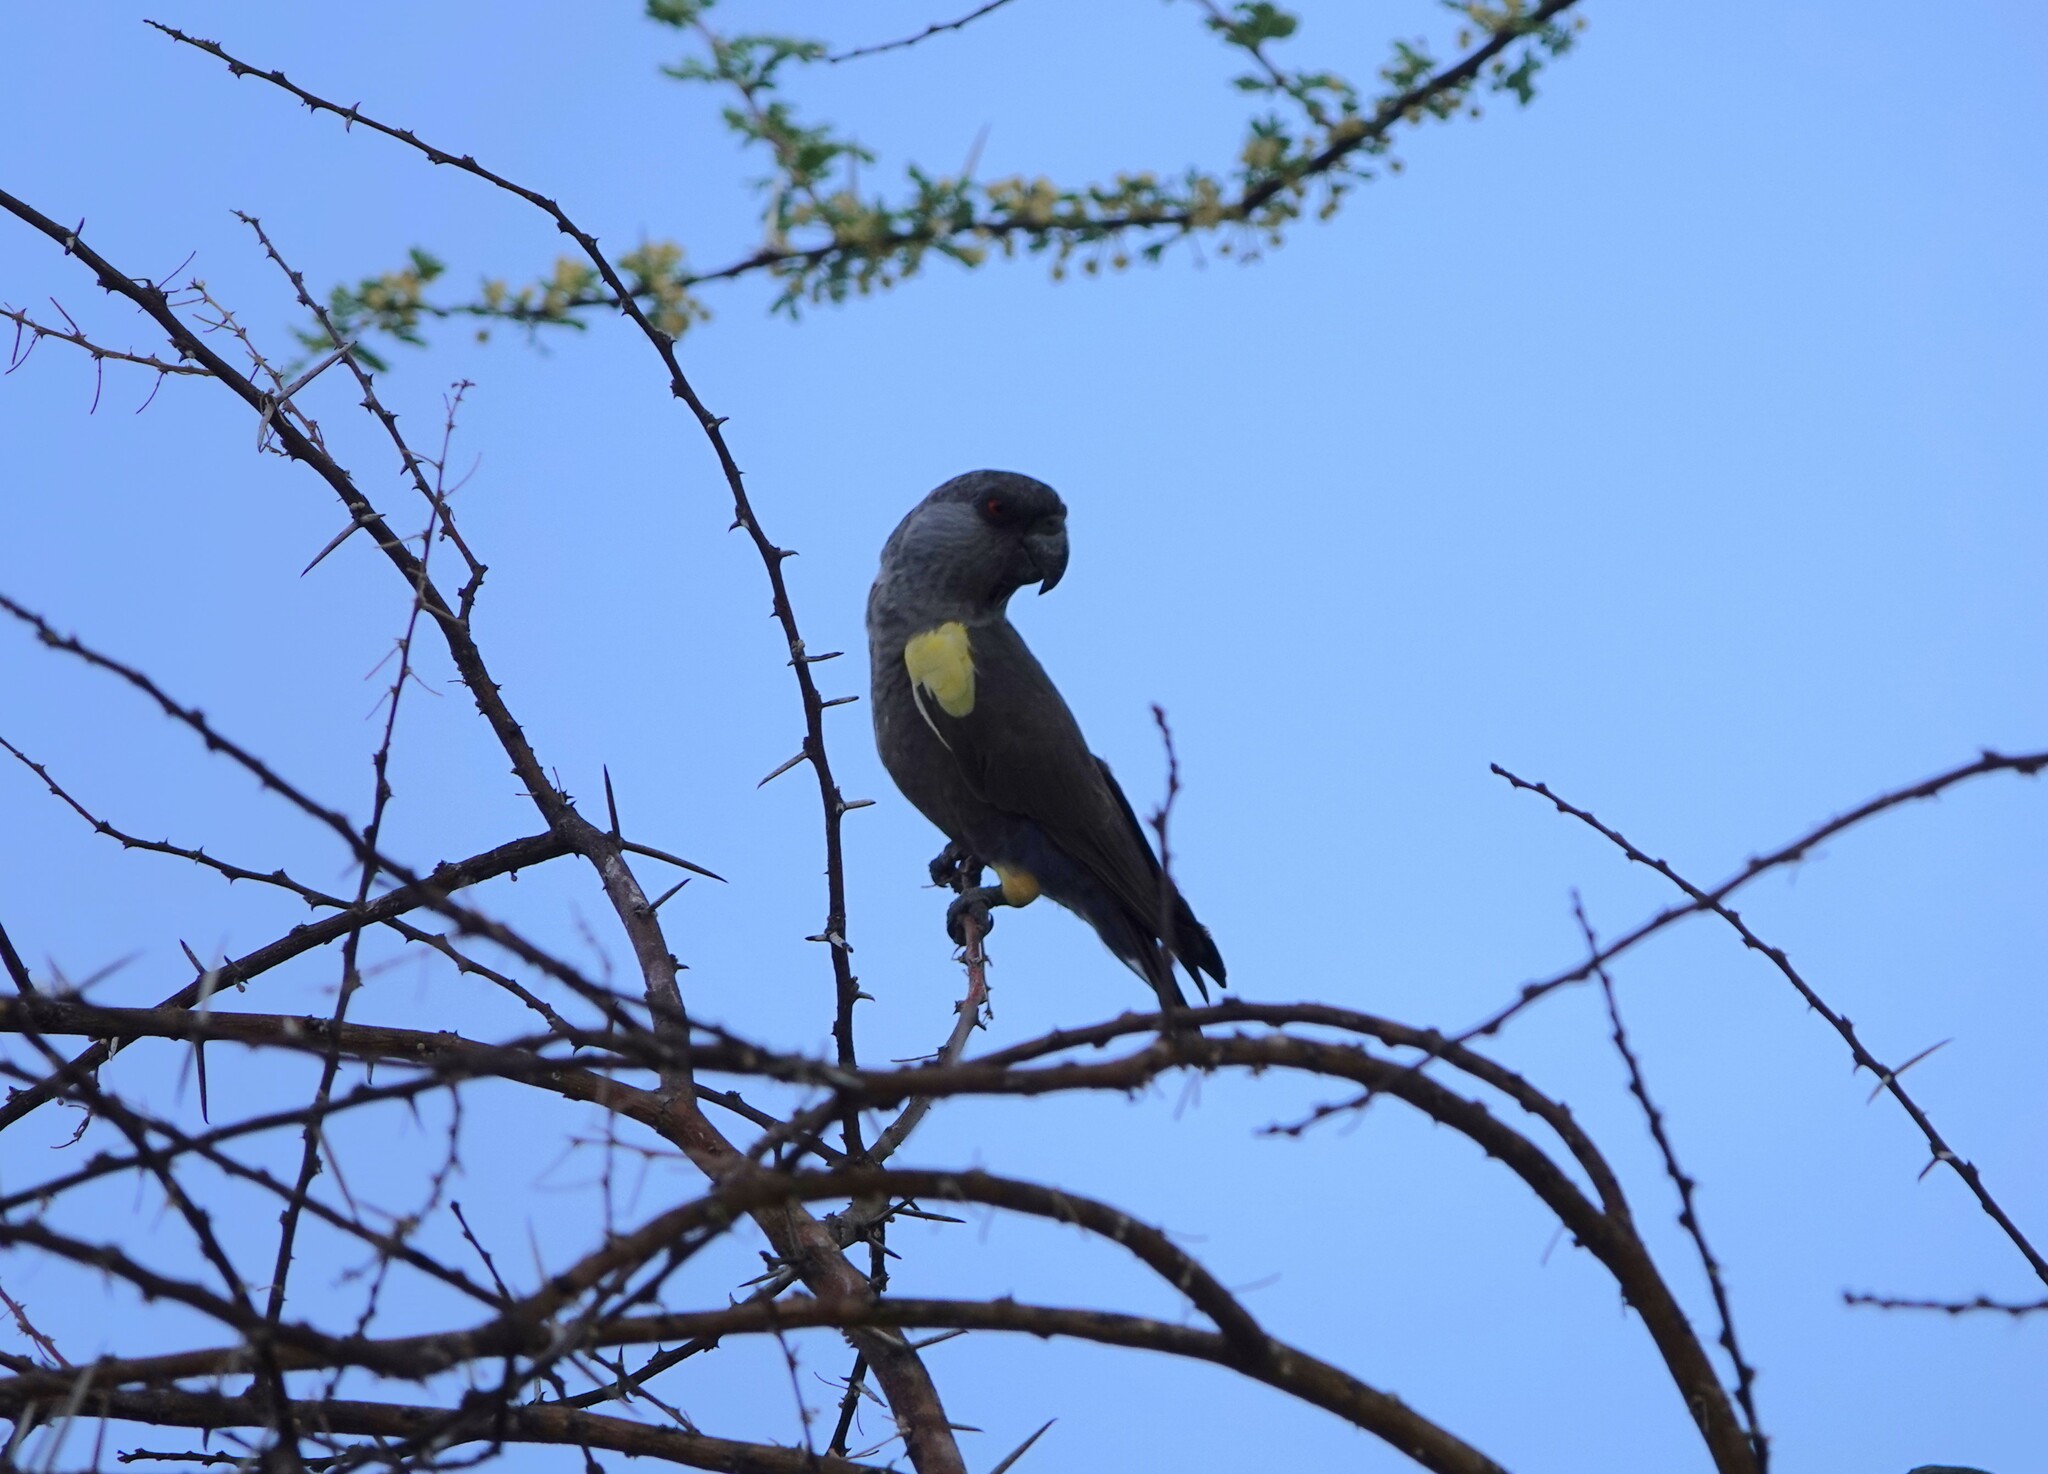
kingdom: Animalia
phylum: Chordata
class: Aves
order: Psittaciformes
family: Psittacidae
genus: Poicephalus
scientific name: Poicephalus rueppellii
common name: Rüppell's parrot
